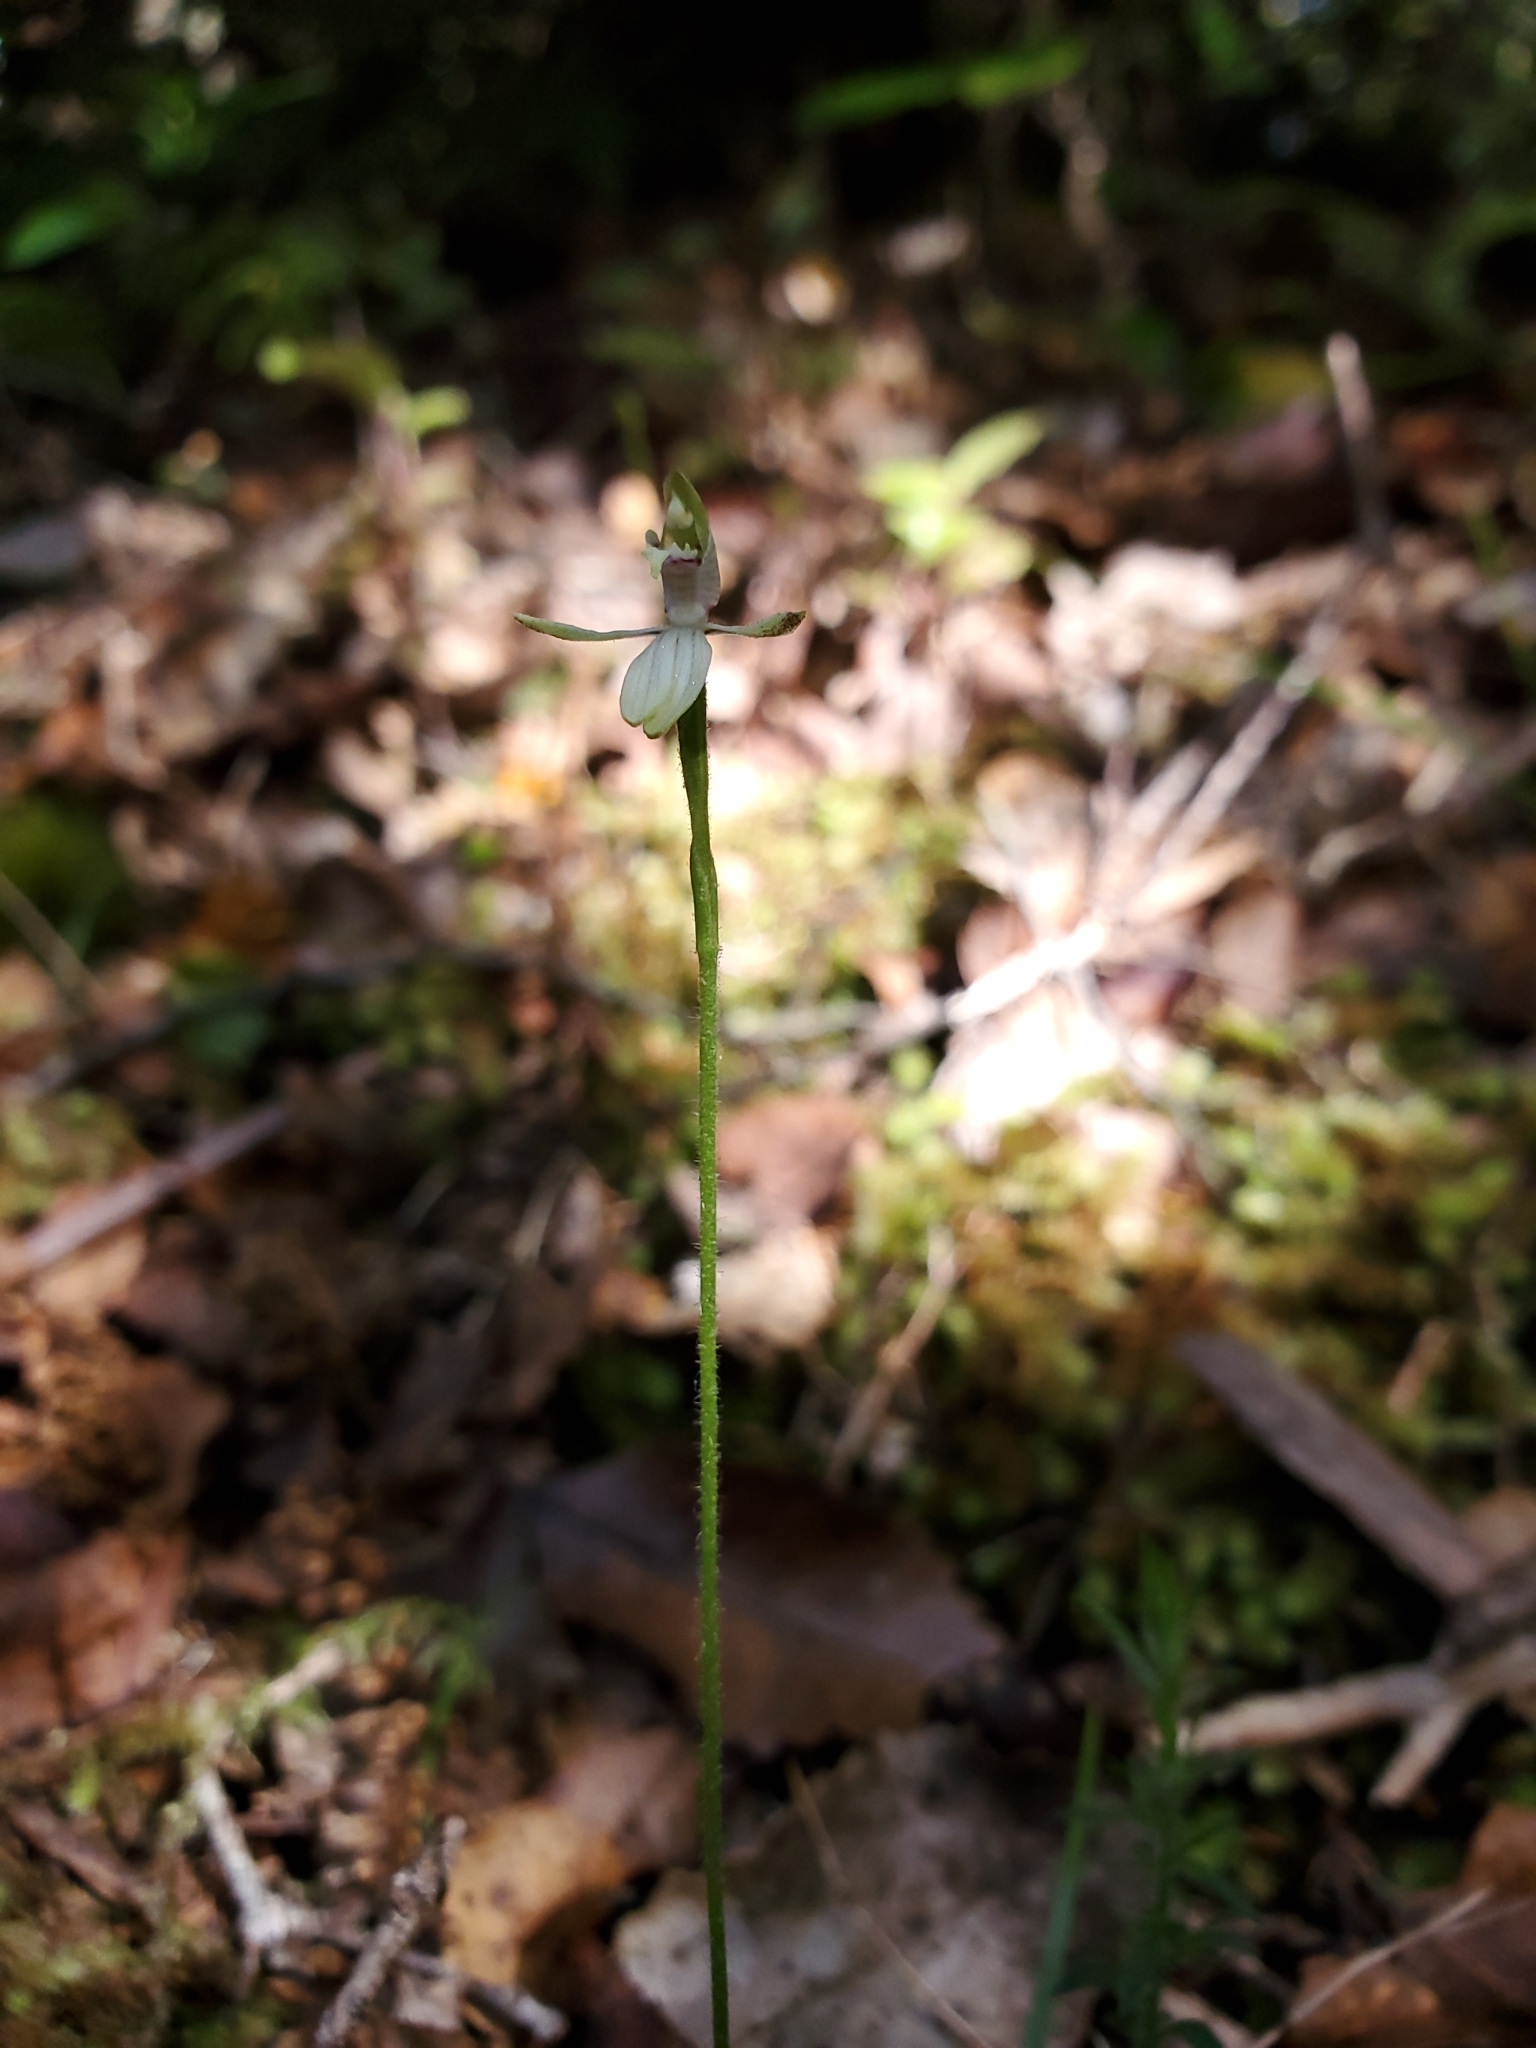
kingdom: Plantae
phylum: Tracheophyta
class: Liliopsida
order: Asparagales
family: Orchidaceae
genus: Caladenia
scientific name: Caladenia chlorostyla
